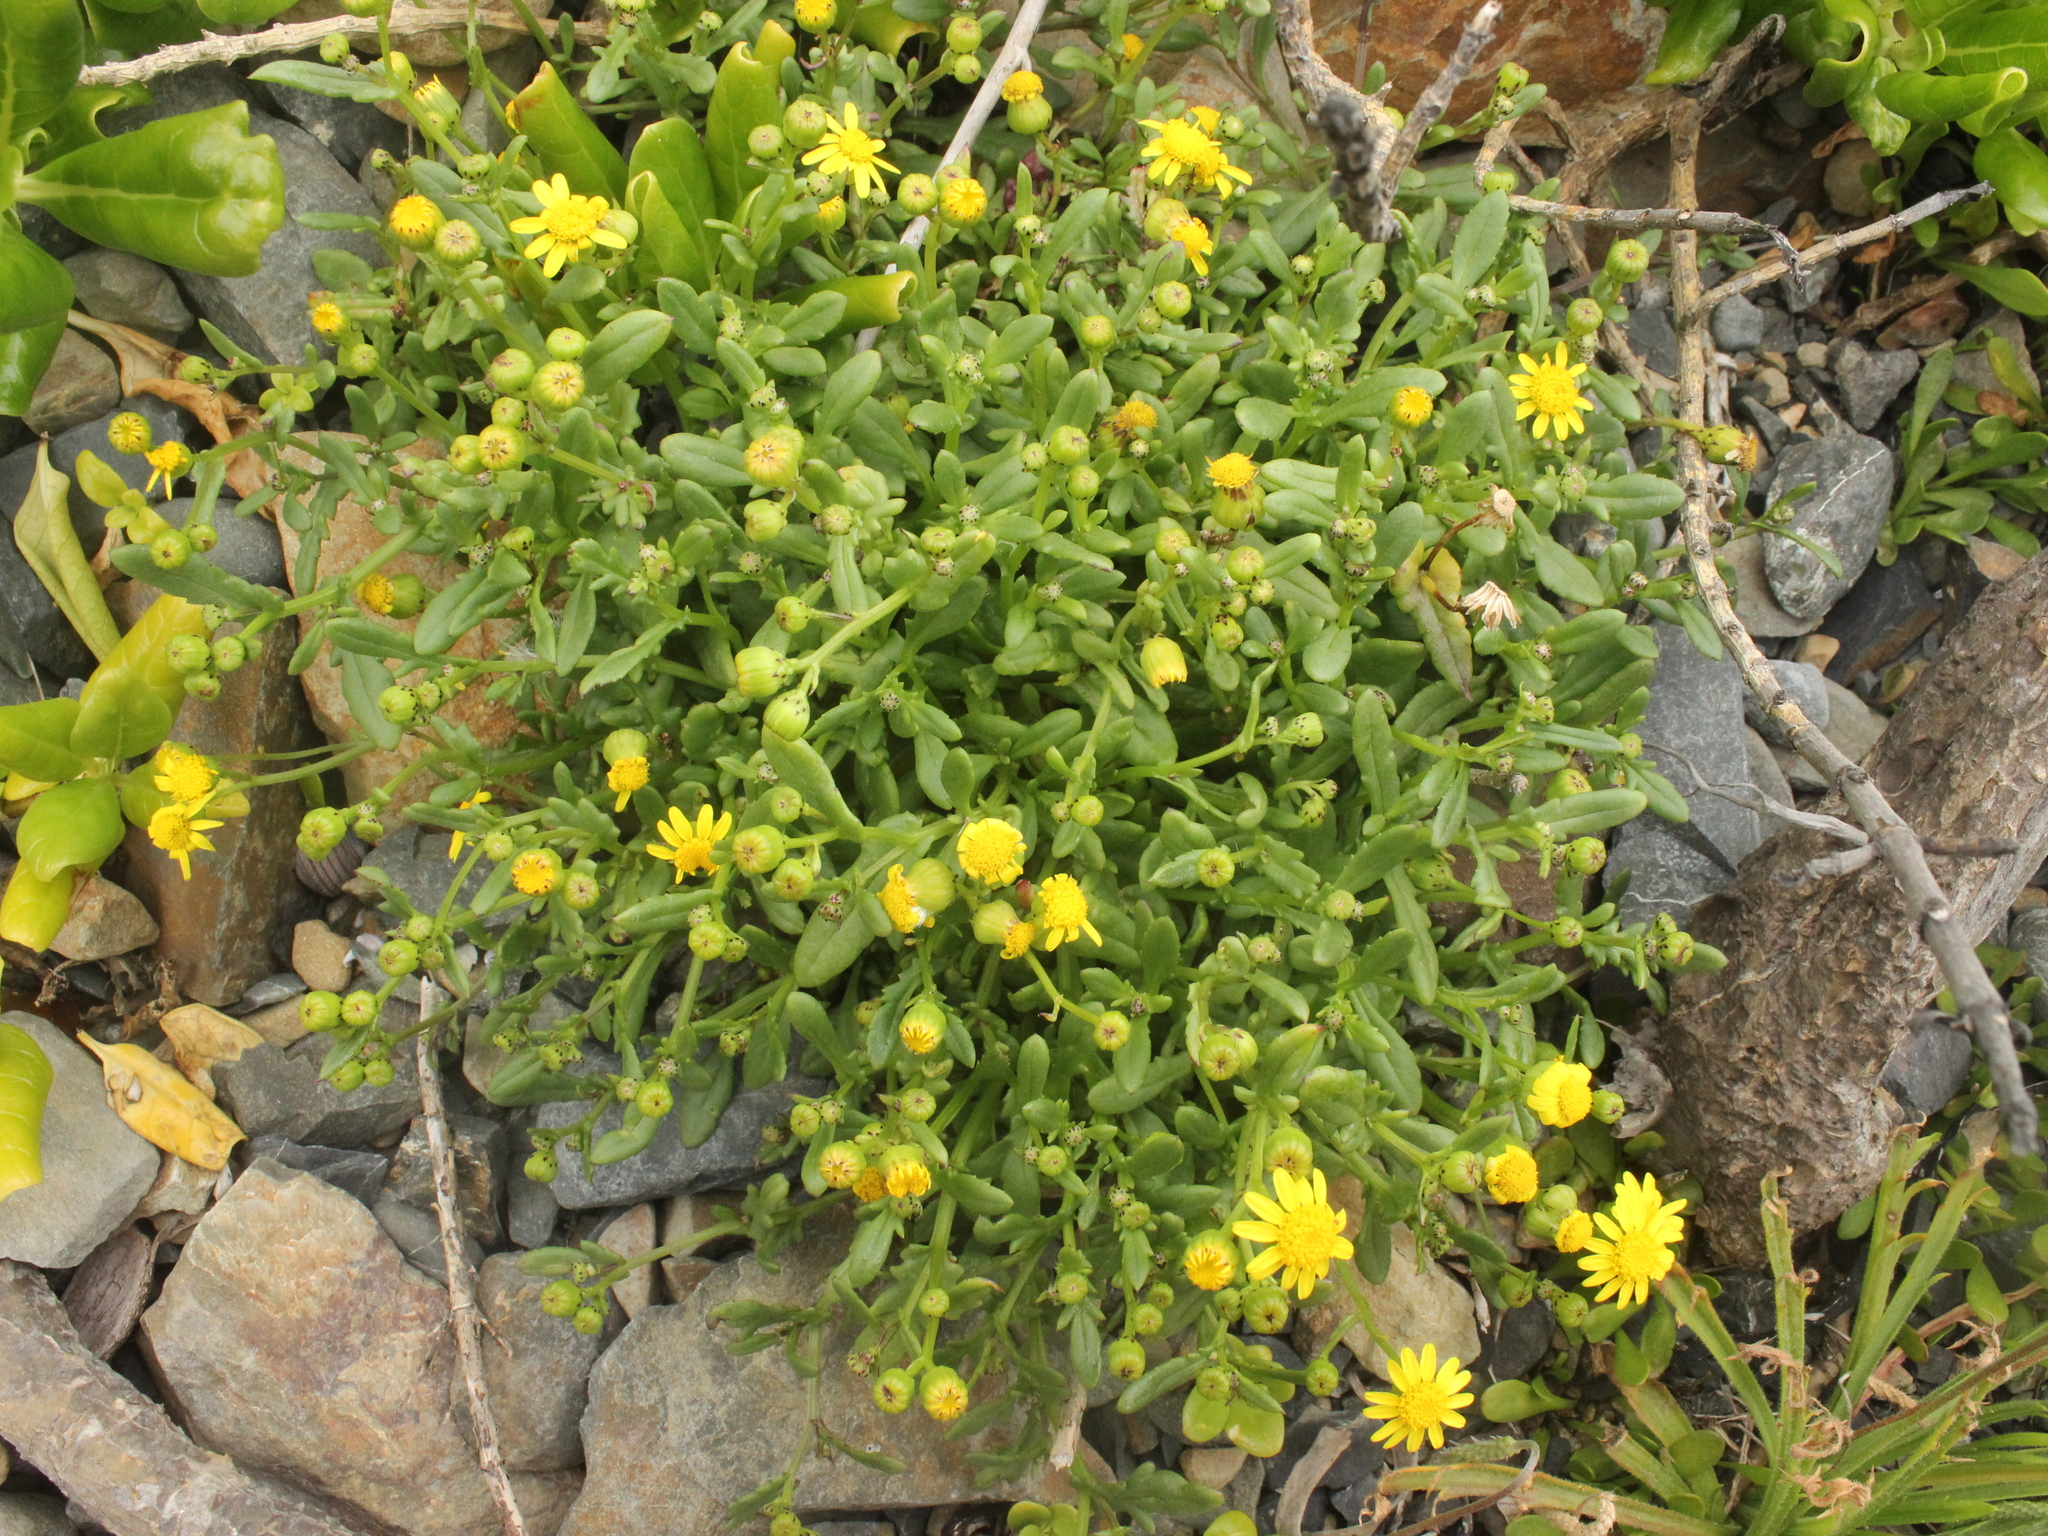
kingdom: Plantae
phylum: Tracheophyta
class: Magnoliopsida
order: Asterales
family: Asteraceae
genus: Senecio
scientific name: Senecio lautus
